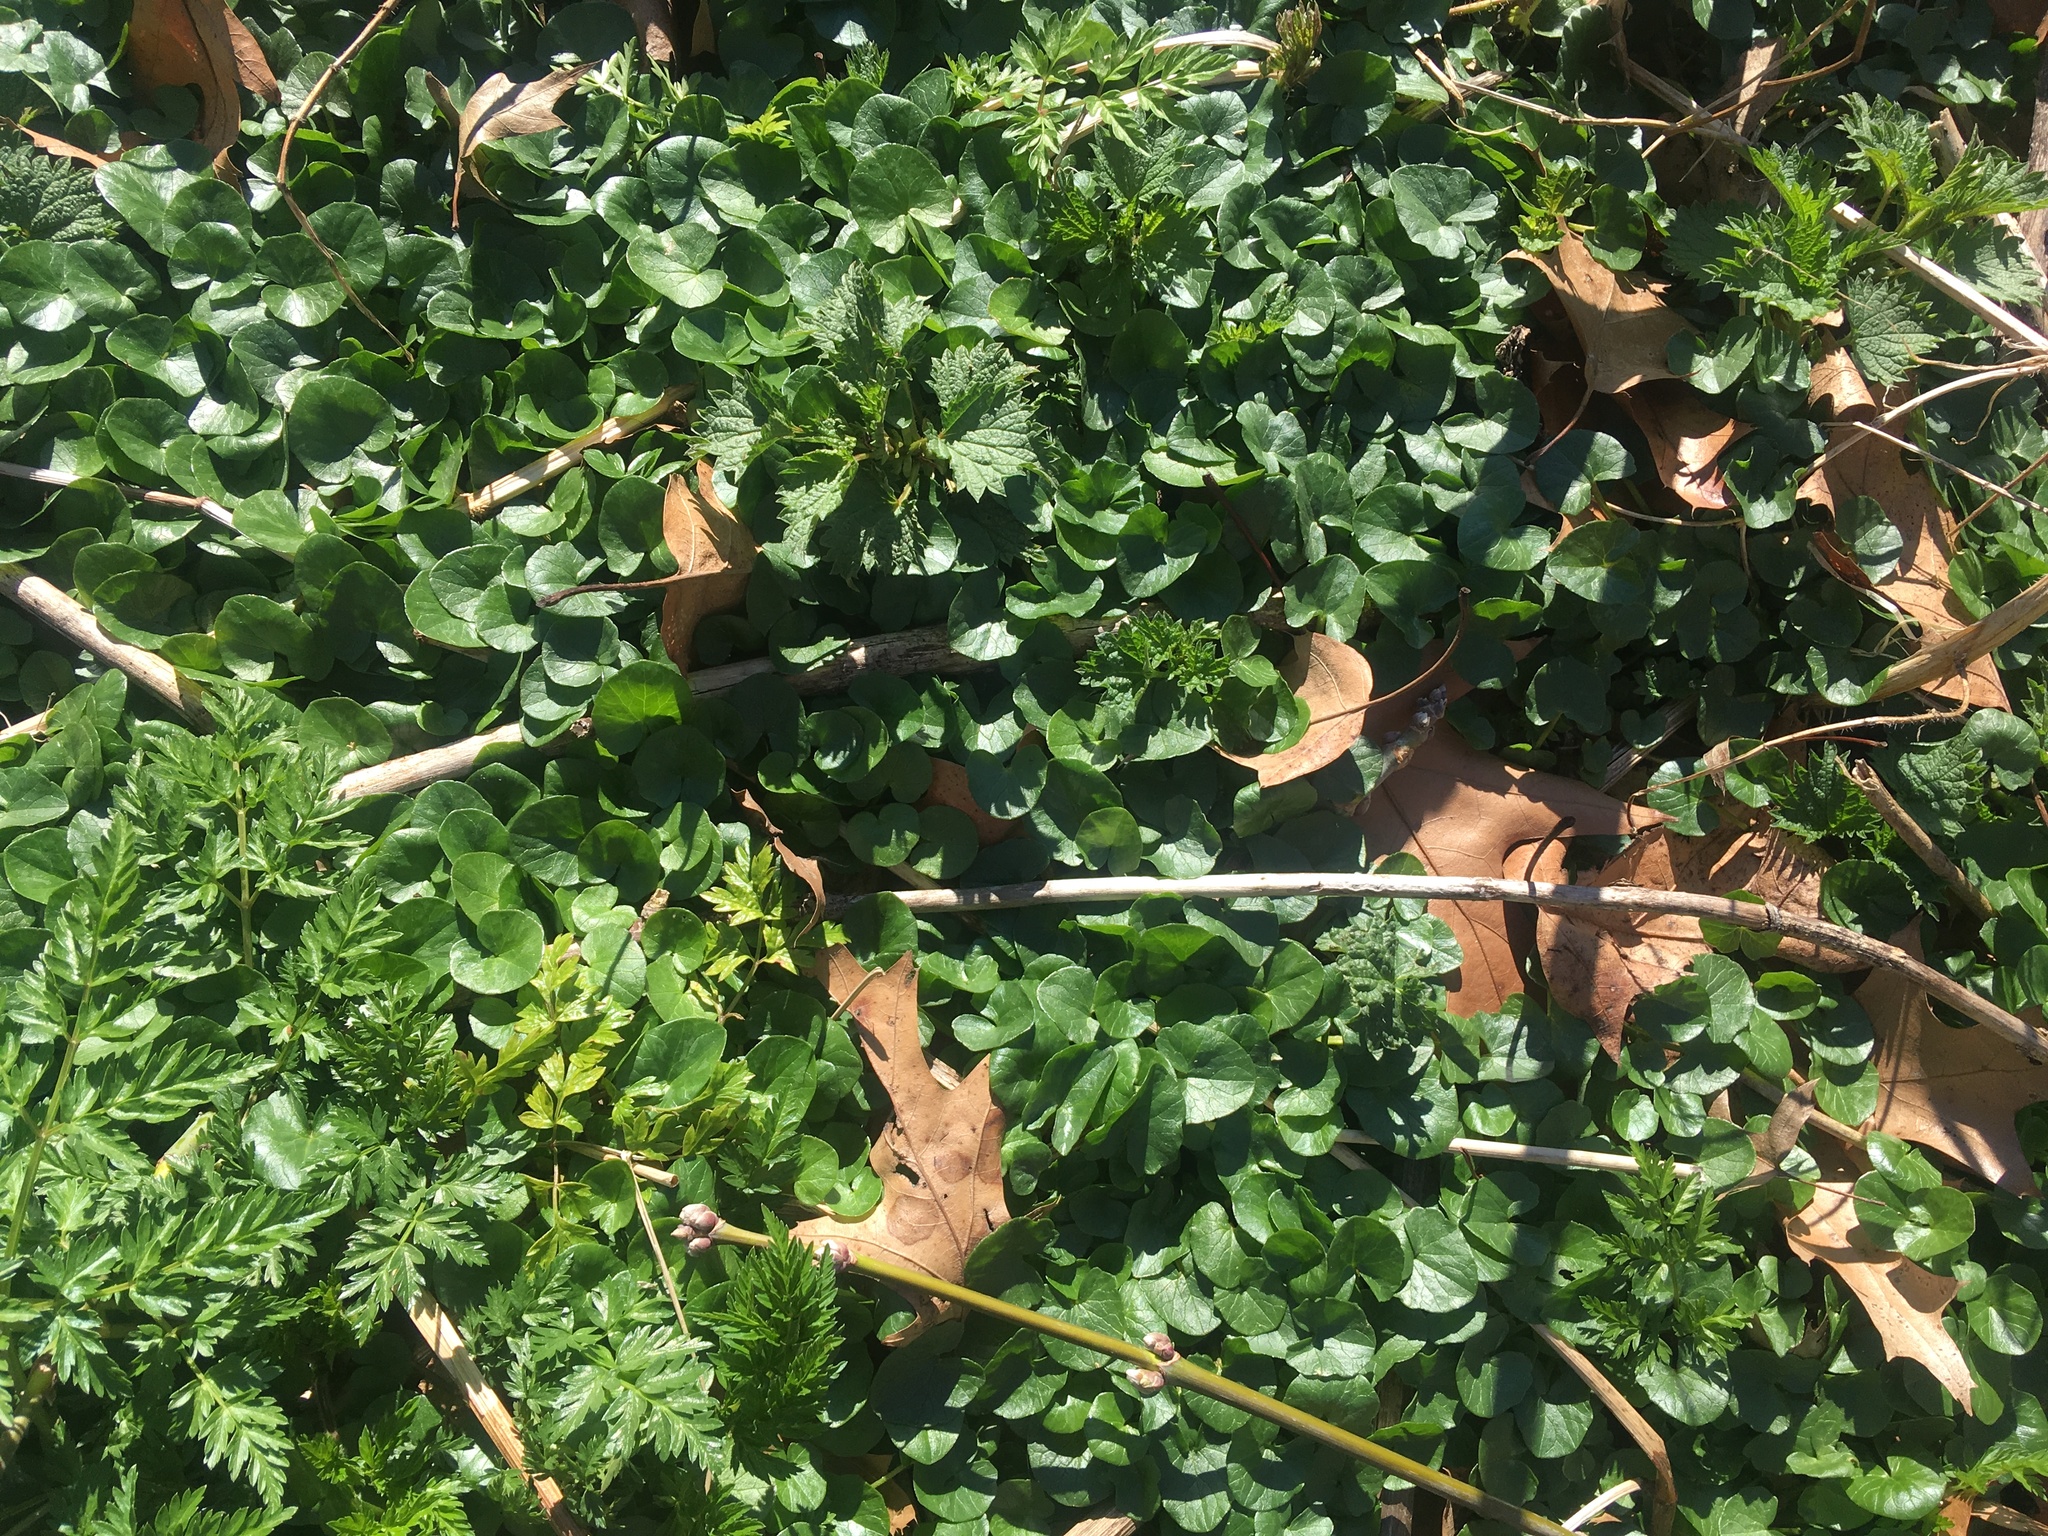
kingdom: Plantae
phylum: Tracheophyta
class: Magnoliopsida
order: Ranunculales
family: Ranunculaceae
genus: Ficaria
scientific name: Ficaria verna
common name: Lesser celandine
